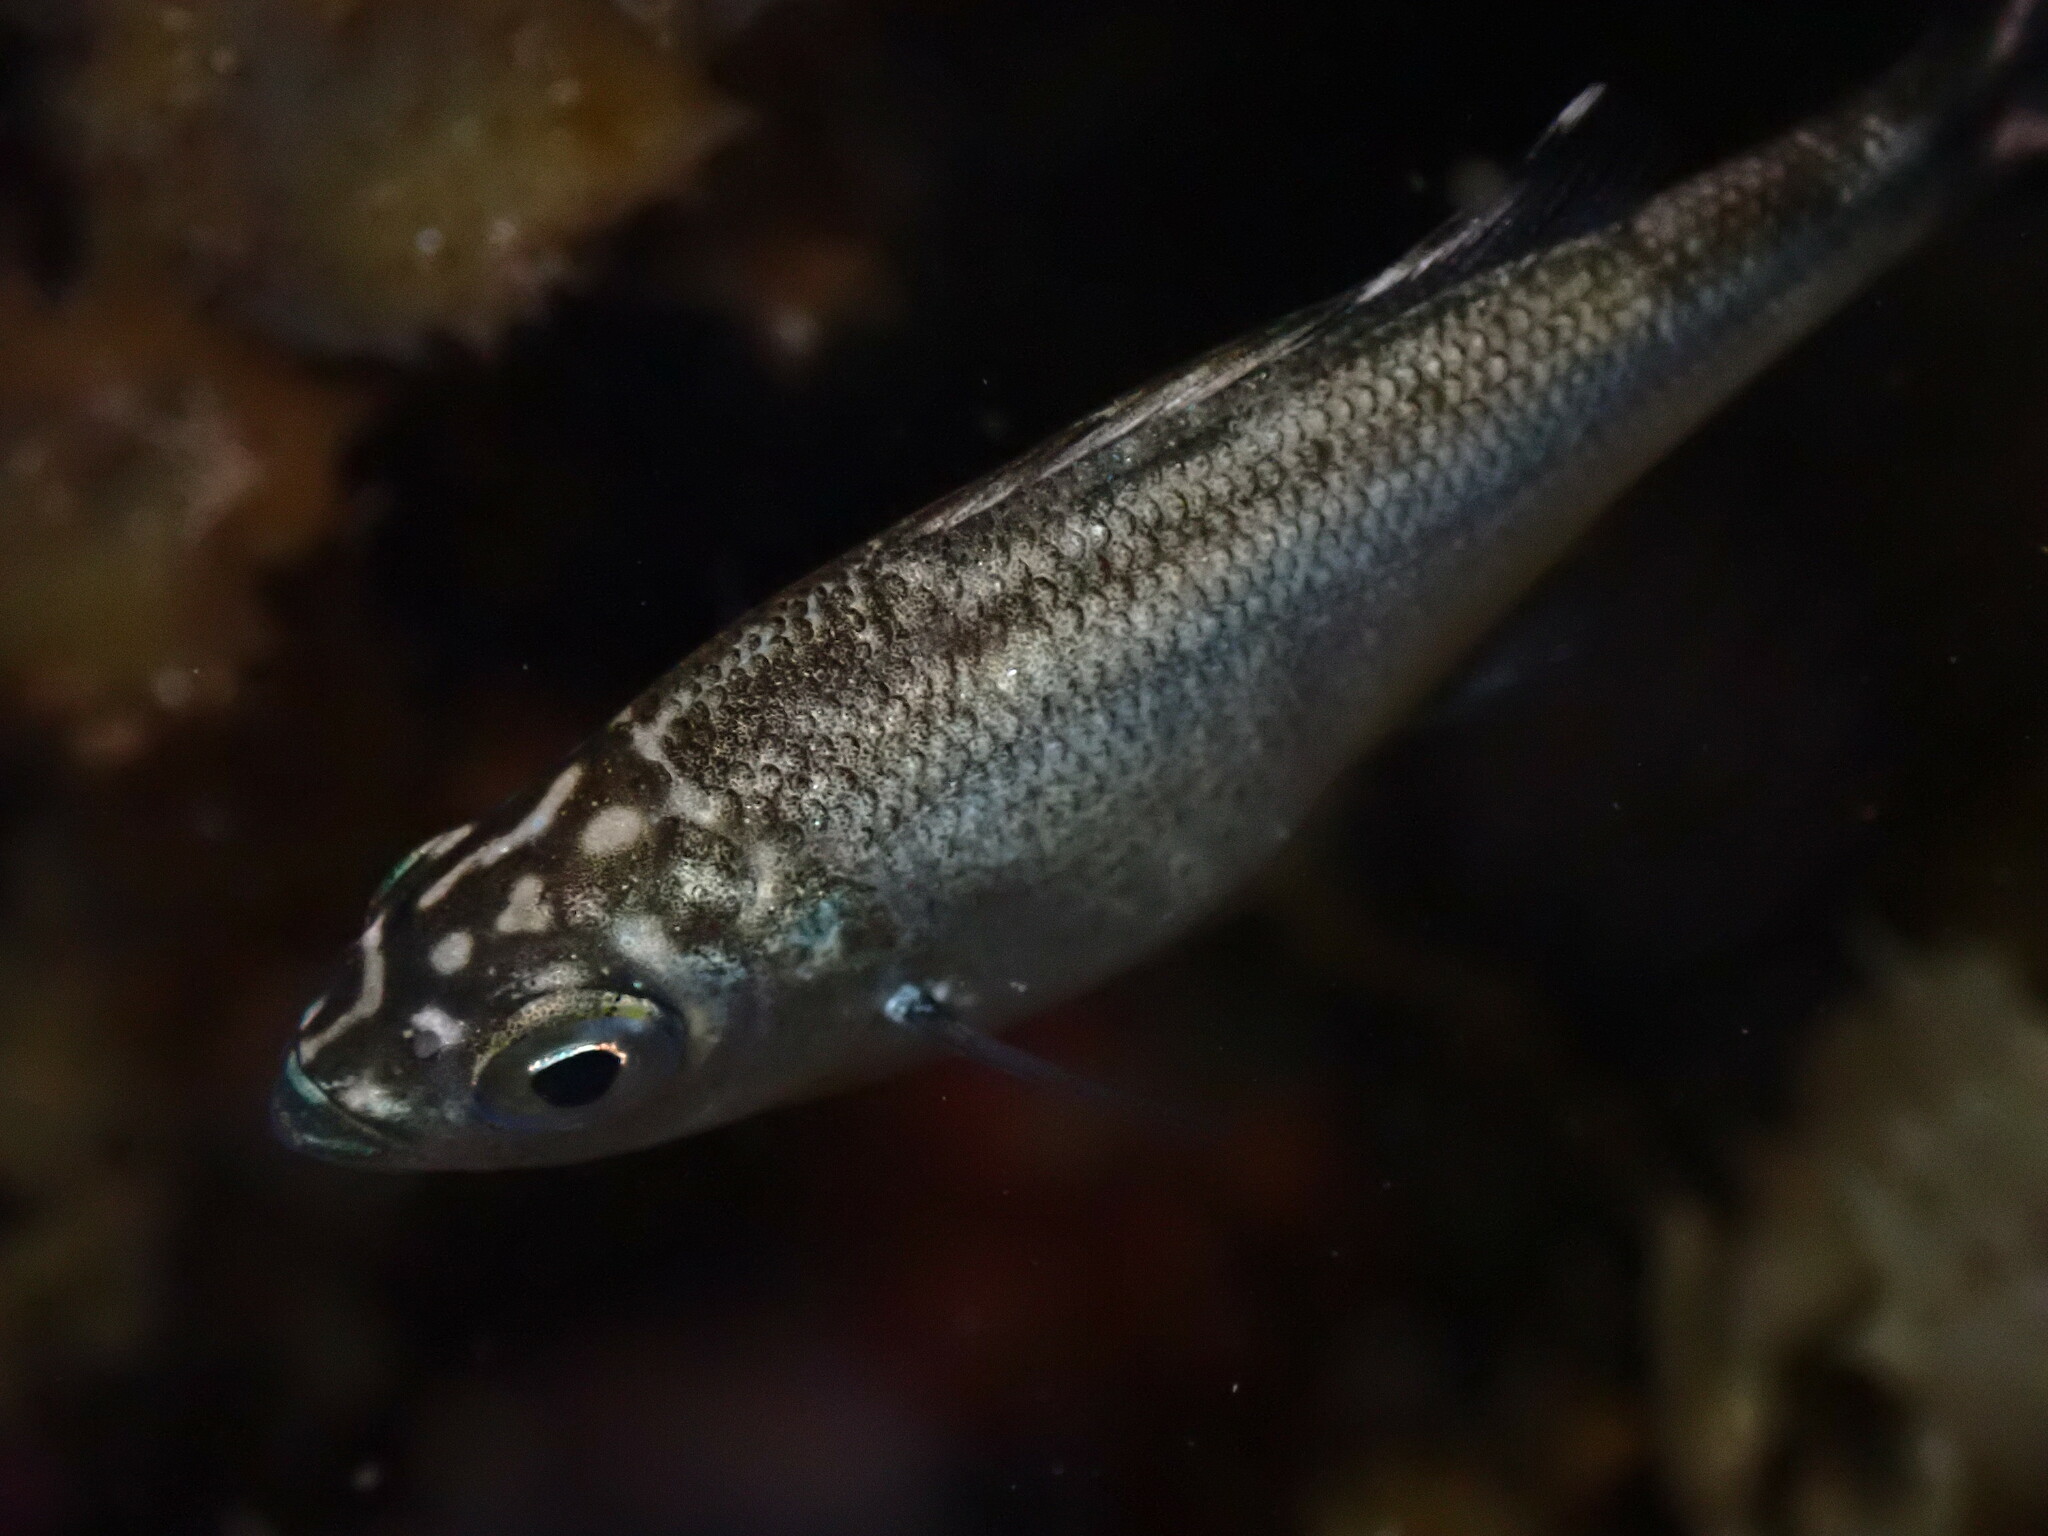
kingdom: Animalia
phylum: Chordata
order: Perciformes
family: Kuhliidae
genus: Kuhlia
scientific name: Kuhlia sandvicensis
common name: Hawaiian flagtail
